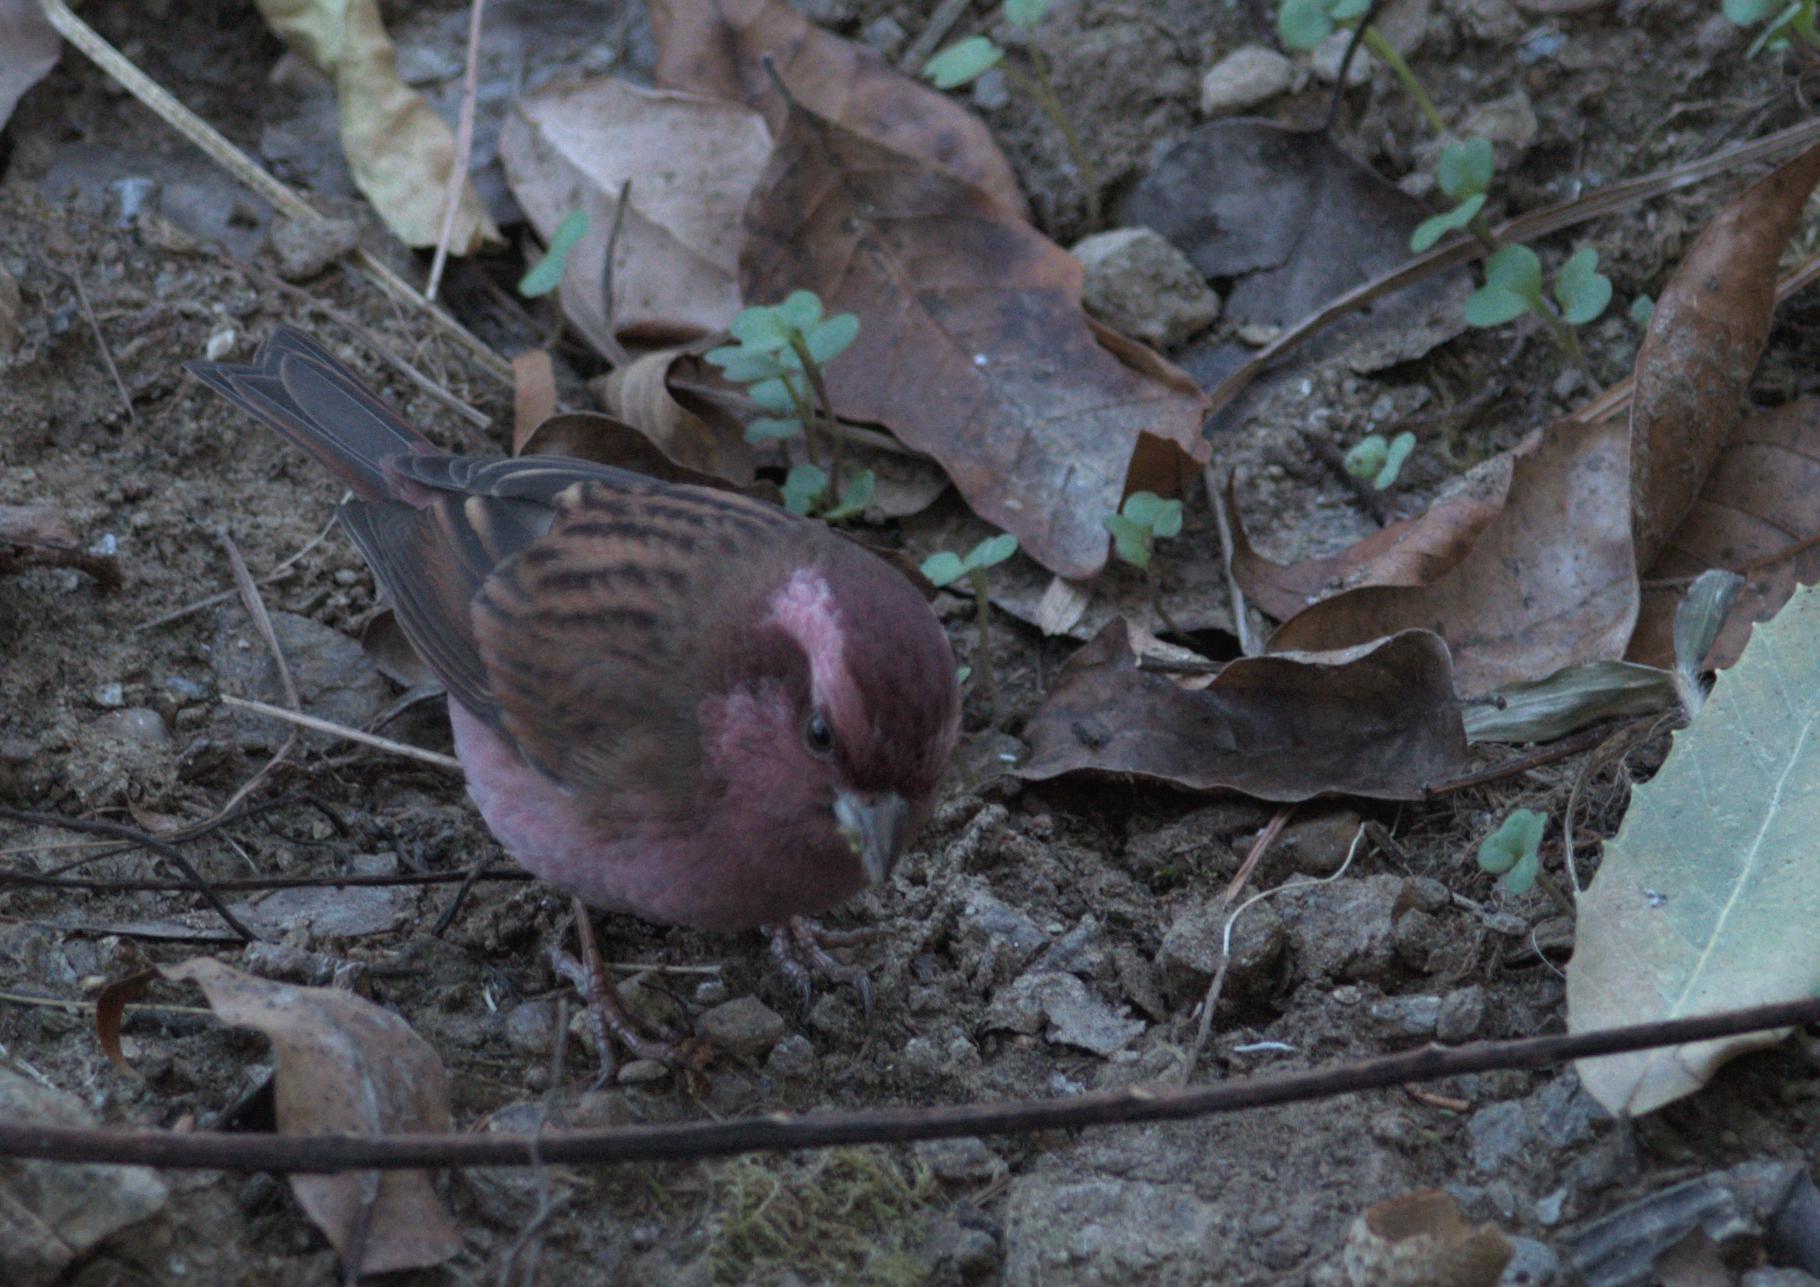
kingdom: Animalia
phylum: Chordata
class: Aves
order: Passeriformes
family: Fringillidae
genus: Carpodacus
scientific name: Carpodacus rodochroa
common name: Pink-browed rosefinch
